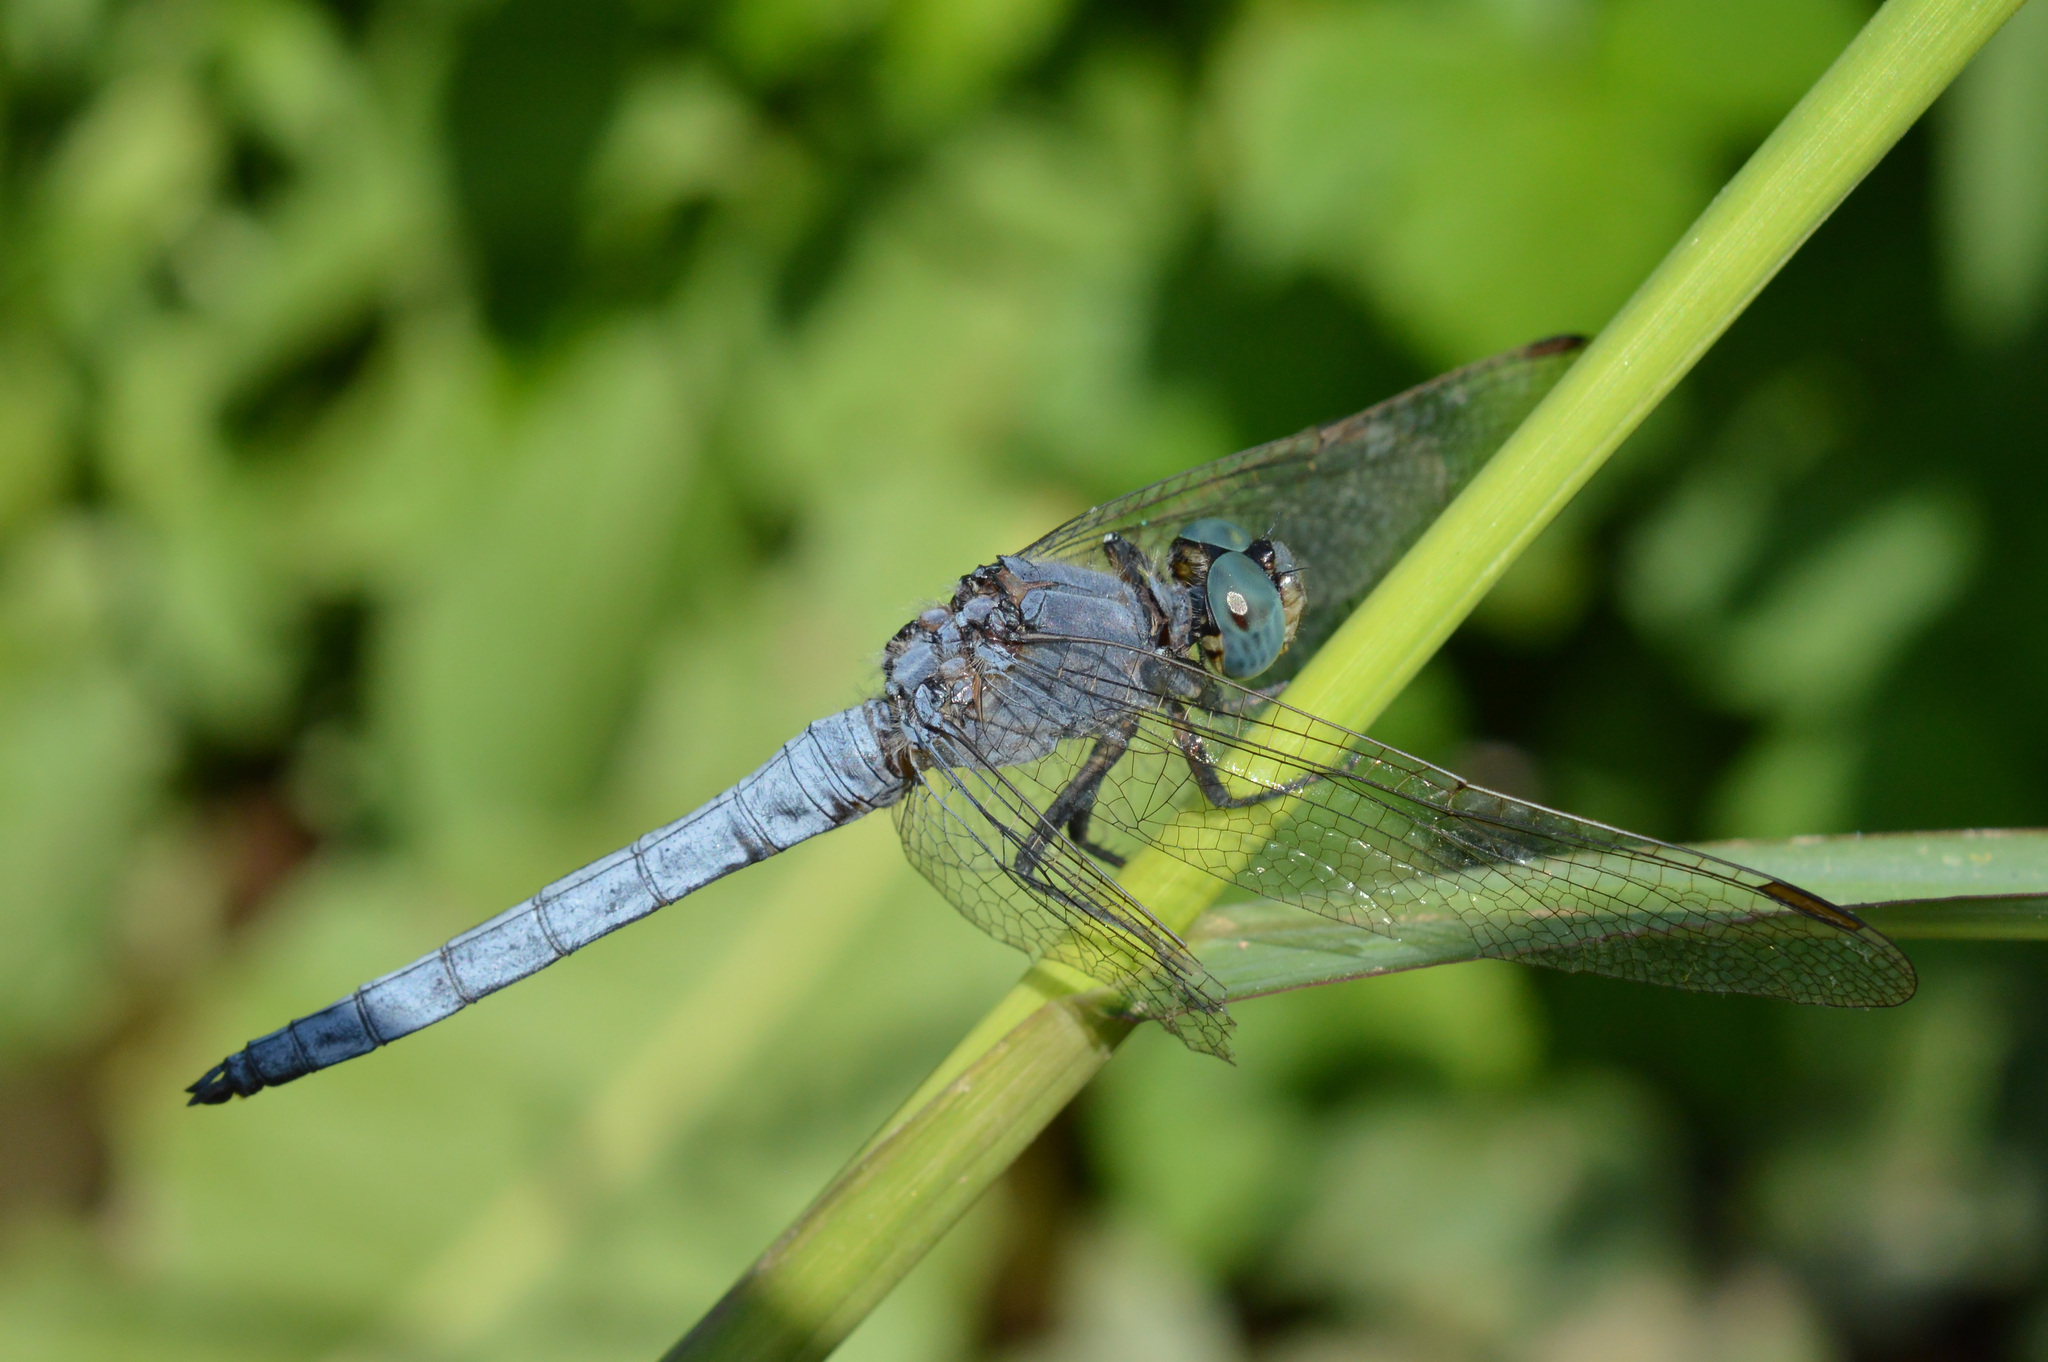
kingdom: Animalia
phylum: Arthropoda
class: Insecta
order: Odonata
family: Libellulidae
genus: Orthetrum
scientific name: Orthetrum coerulescens
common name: Keeled skimmer
